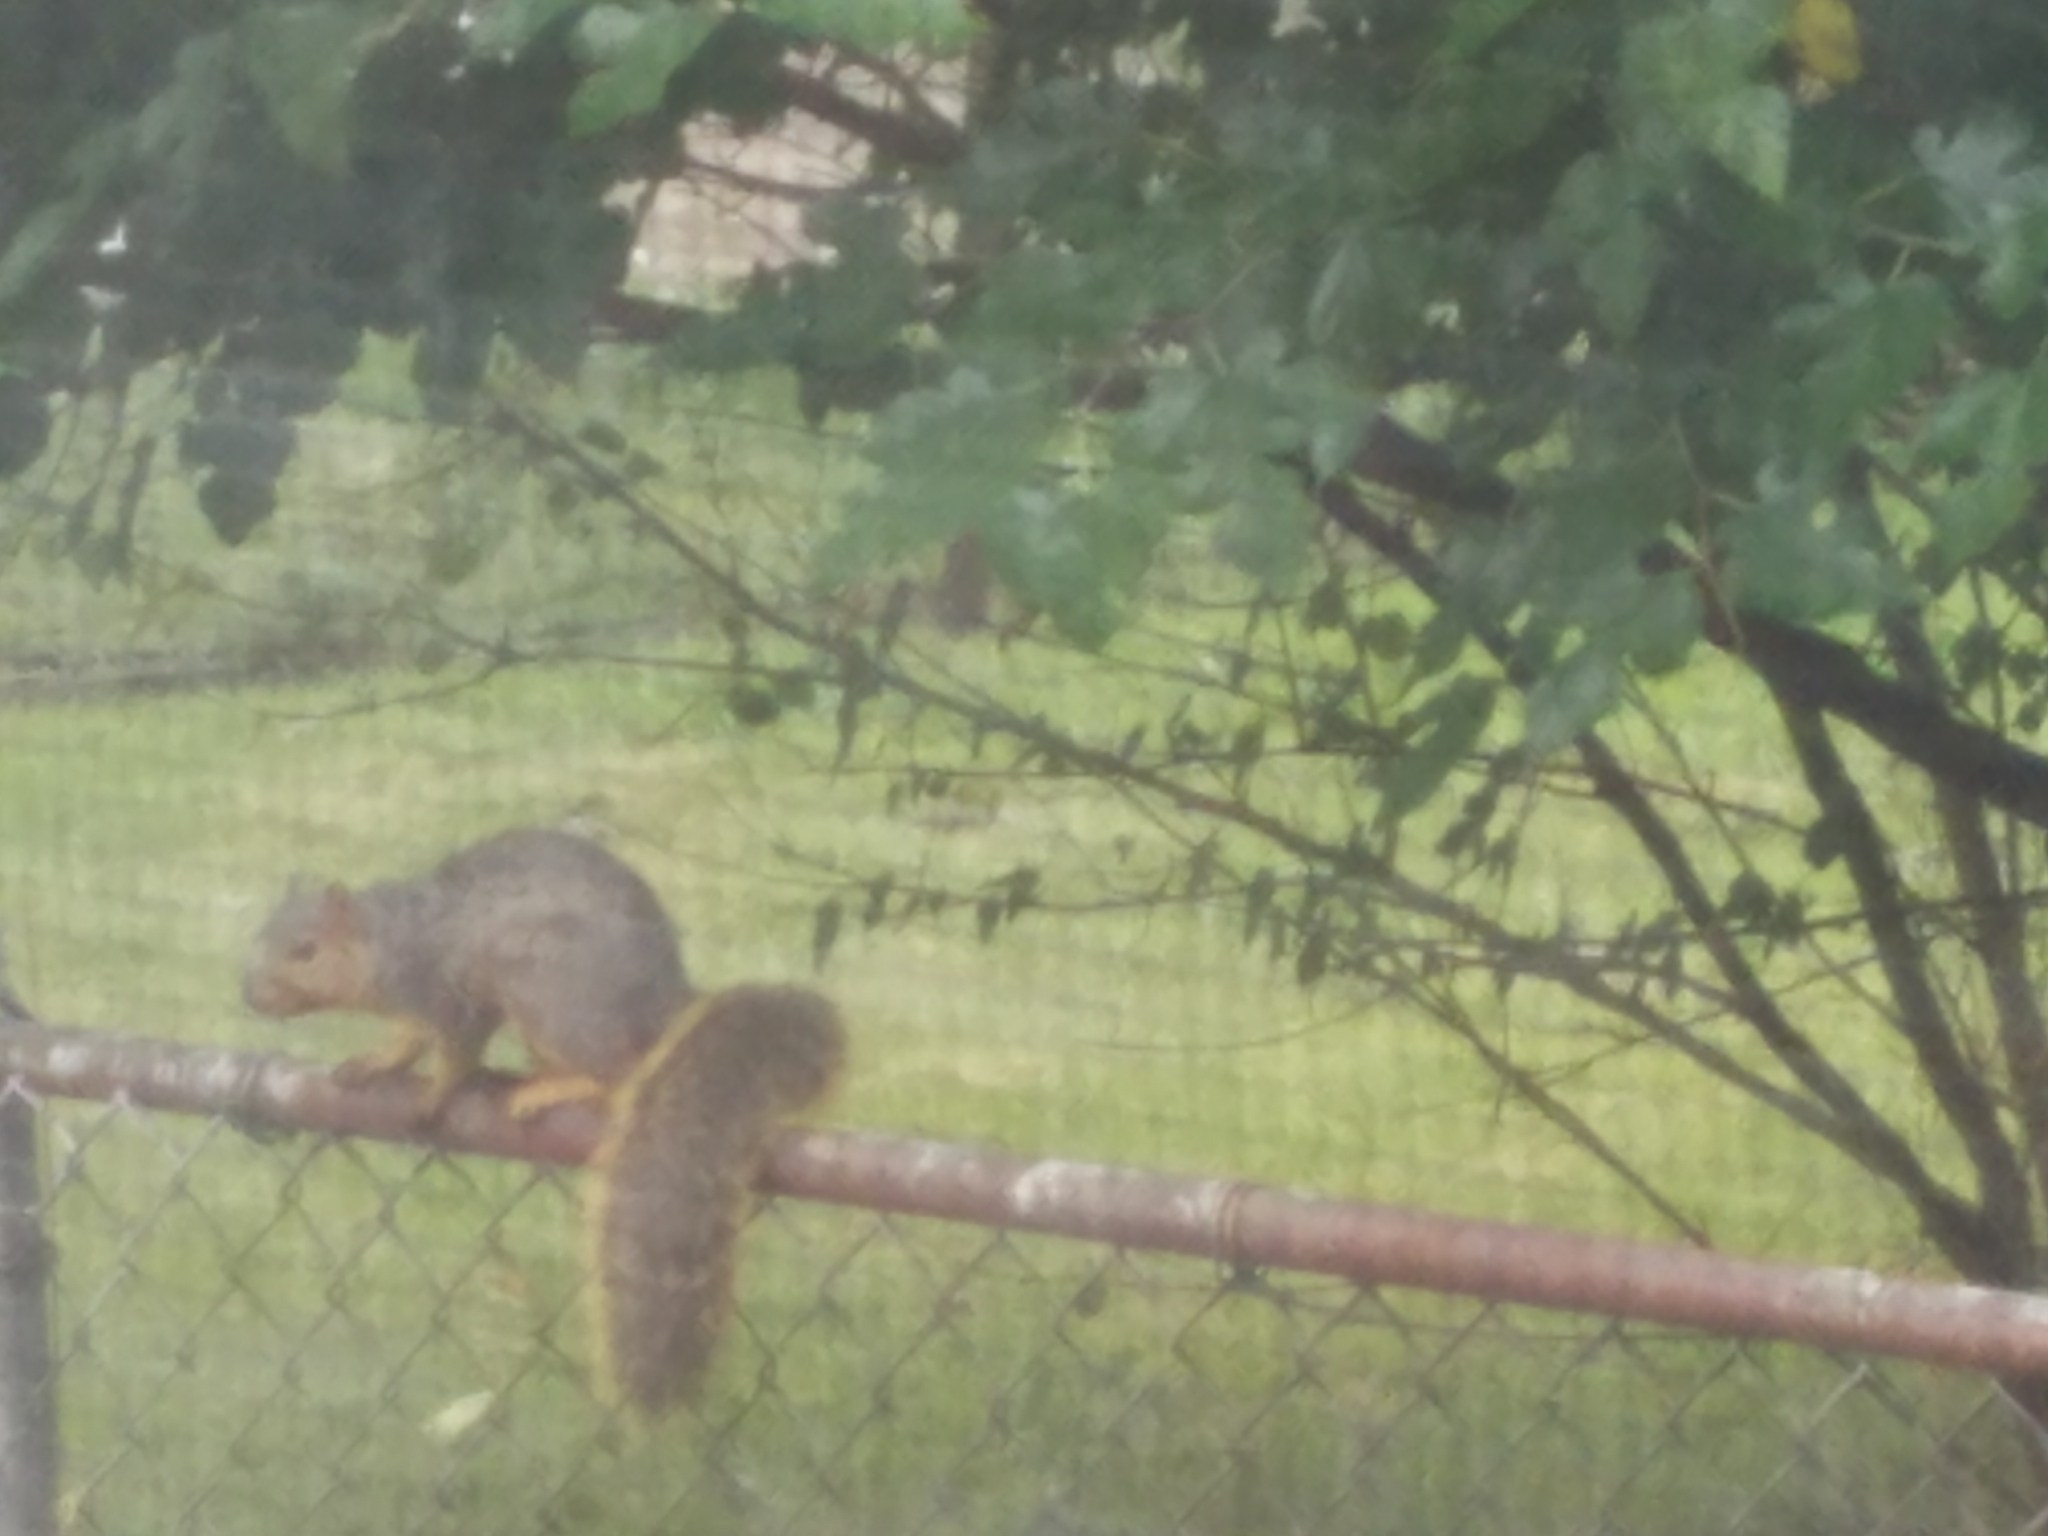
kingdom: Animalia
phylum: Chordata
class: Mammalia
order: Rodentia
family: Sciuridae
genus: Sciurus
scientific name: Sciurus niger
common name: Fox squirrel
